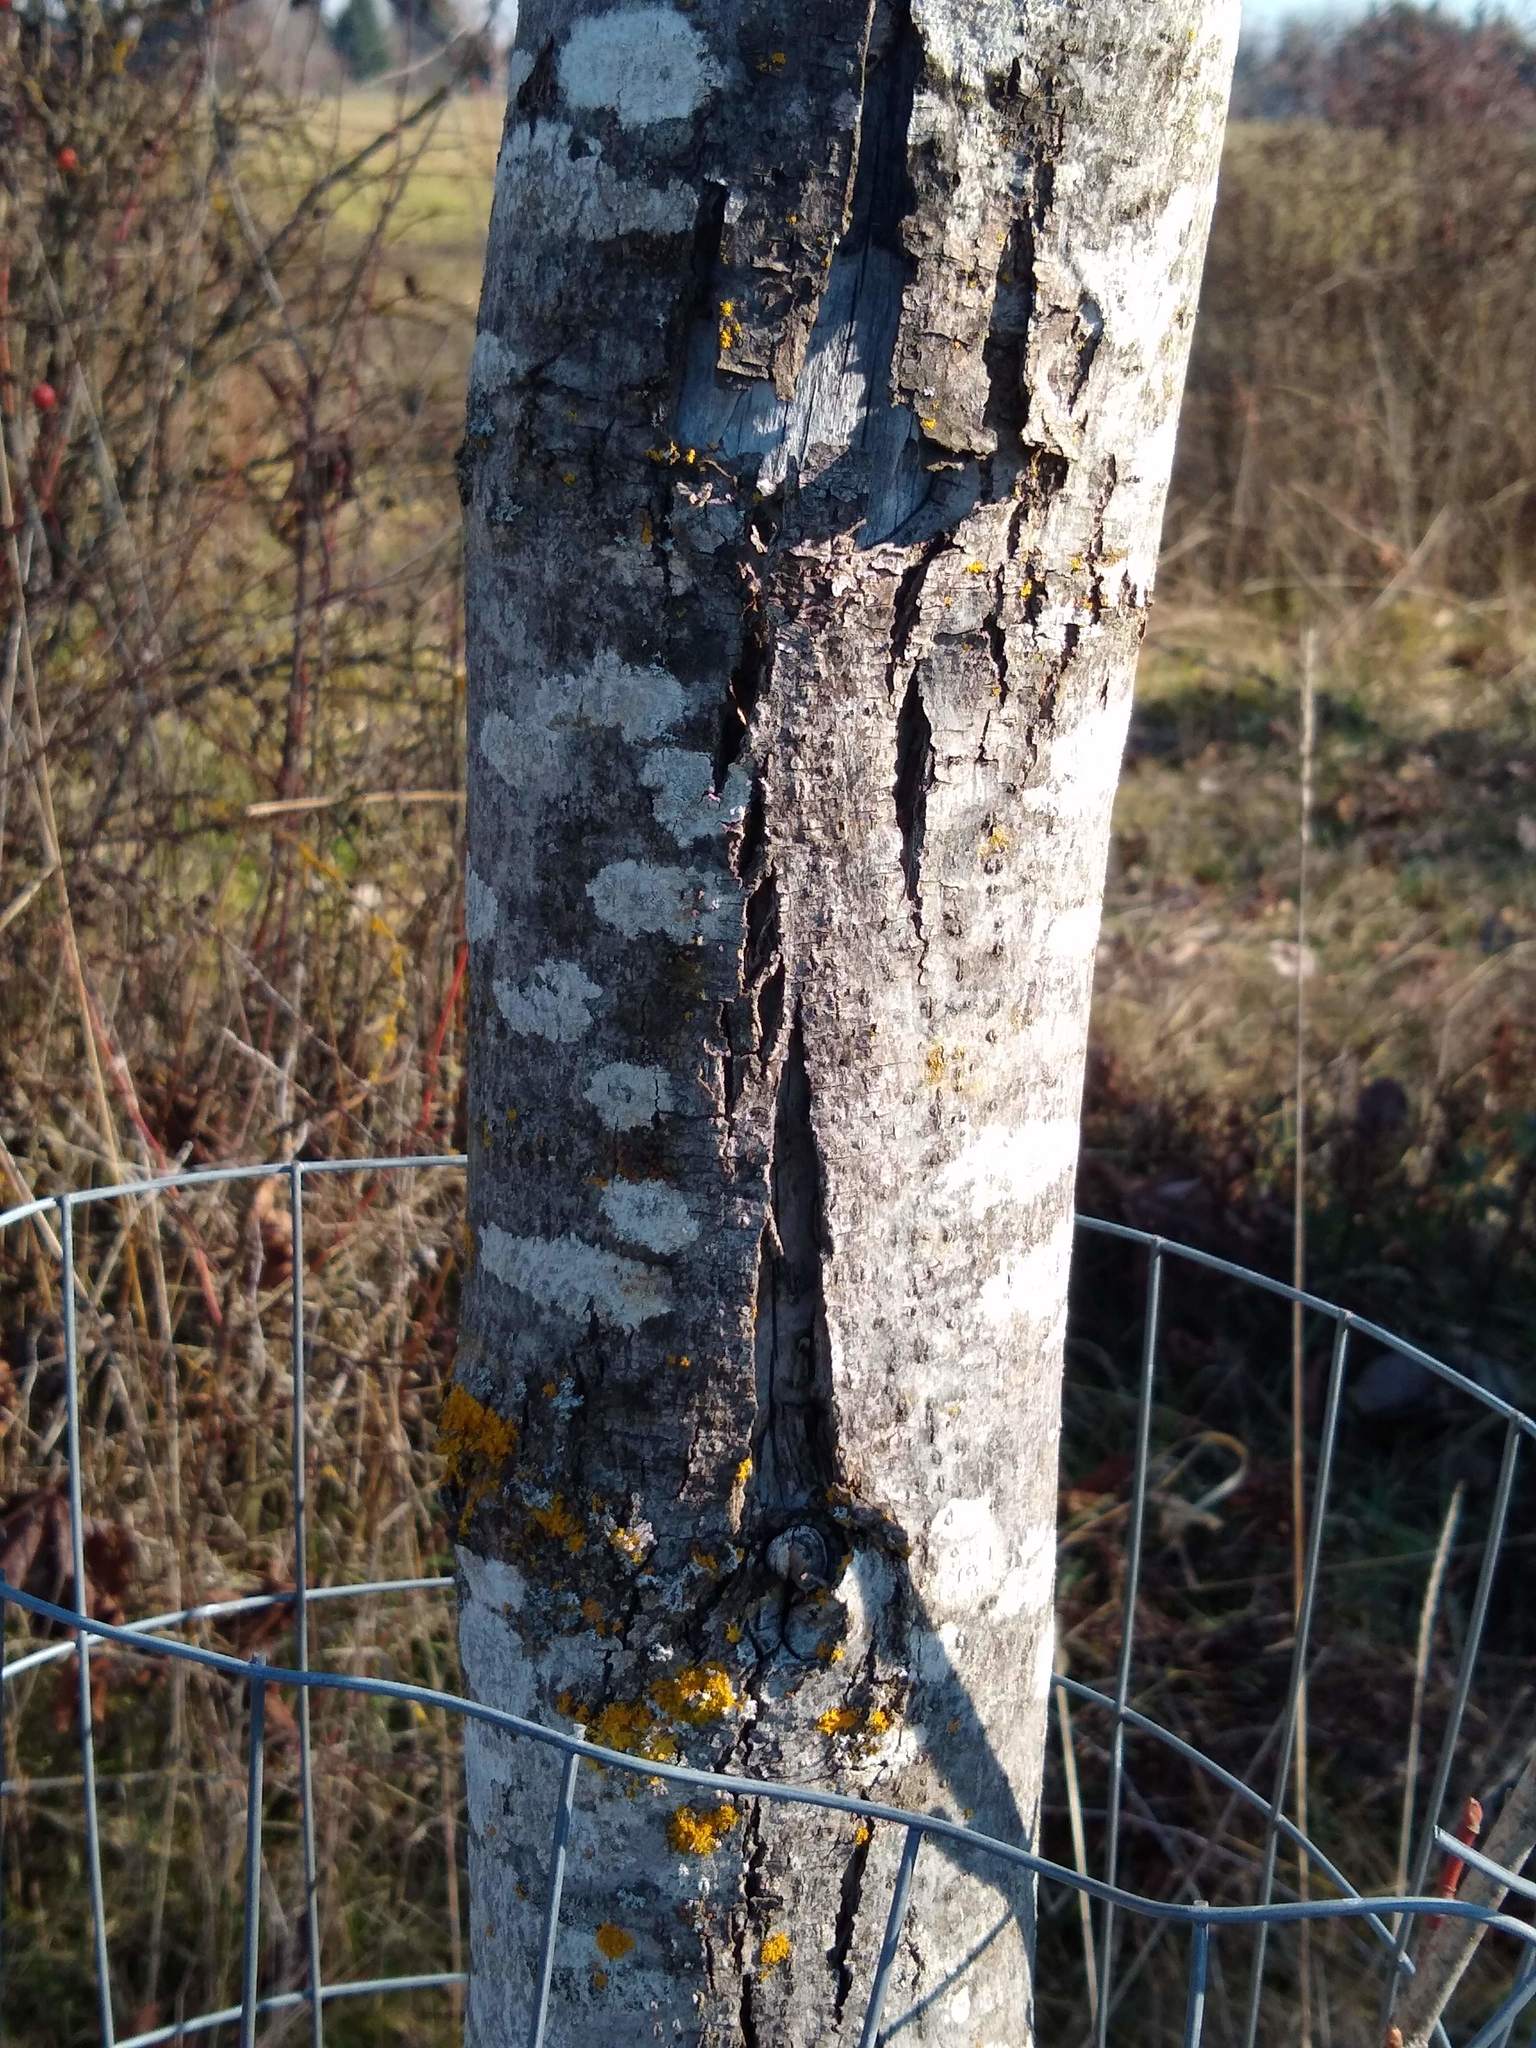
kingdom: Plantae
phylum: Tracheophyta
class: Magnoliopsida
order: Sapindales
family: Sapindaceae
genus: Acer
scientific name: Acer macrophyllum
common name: Oregon maple
